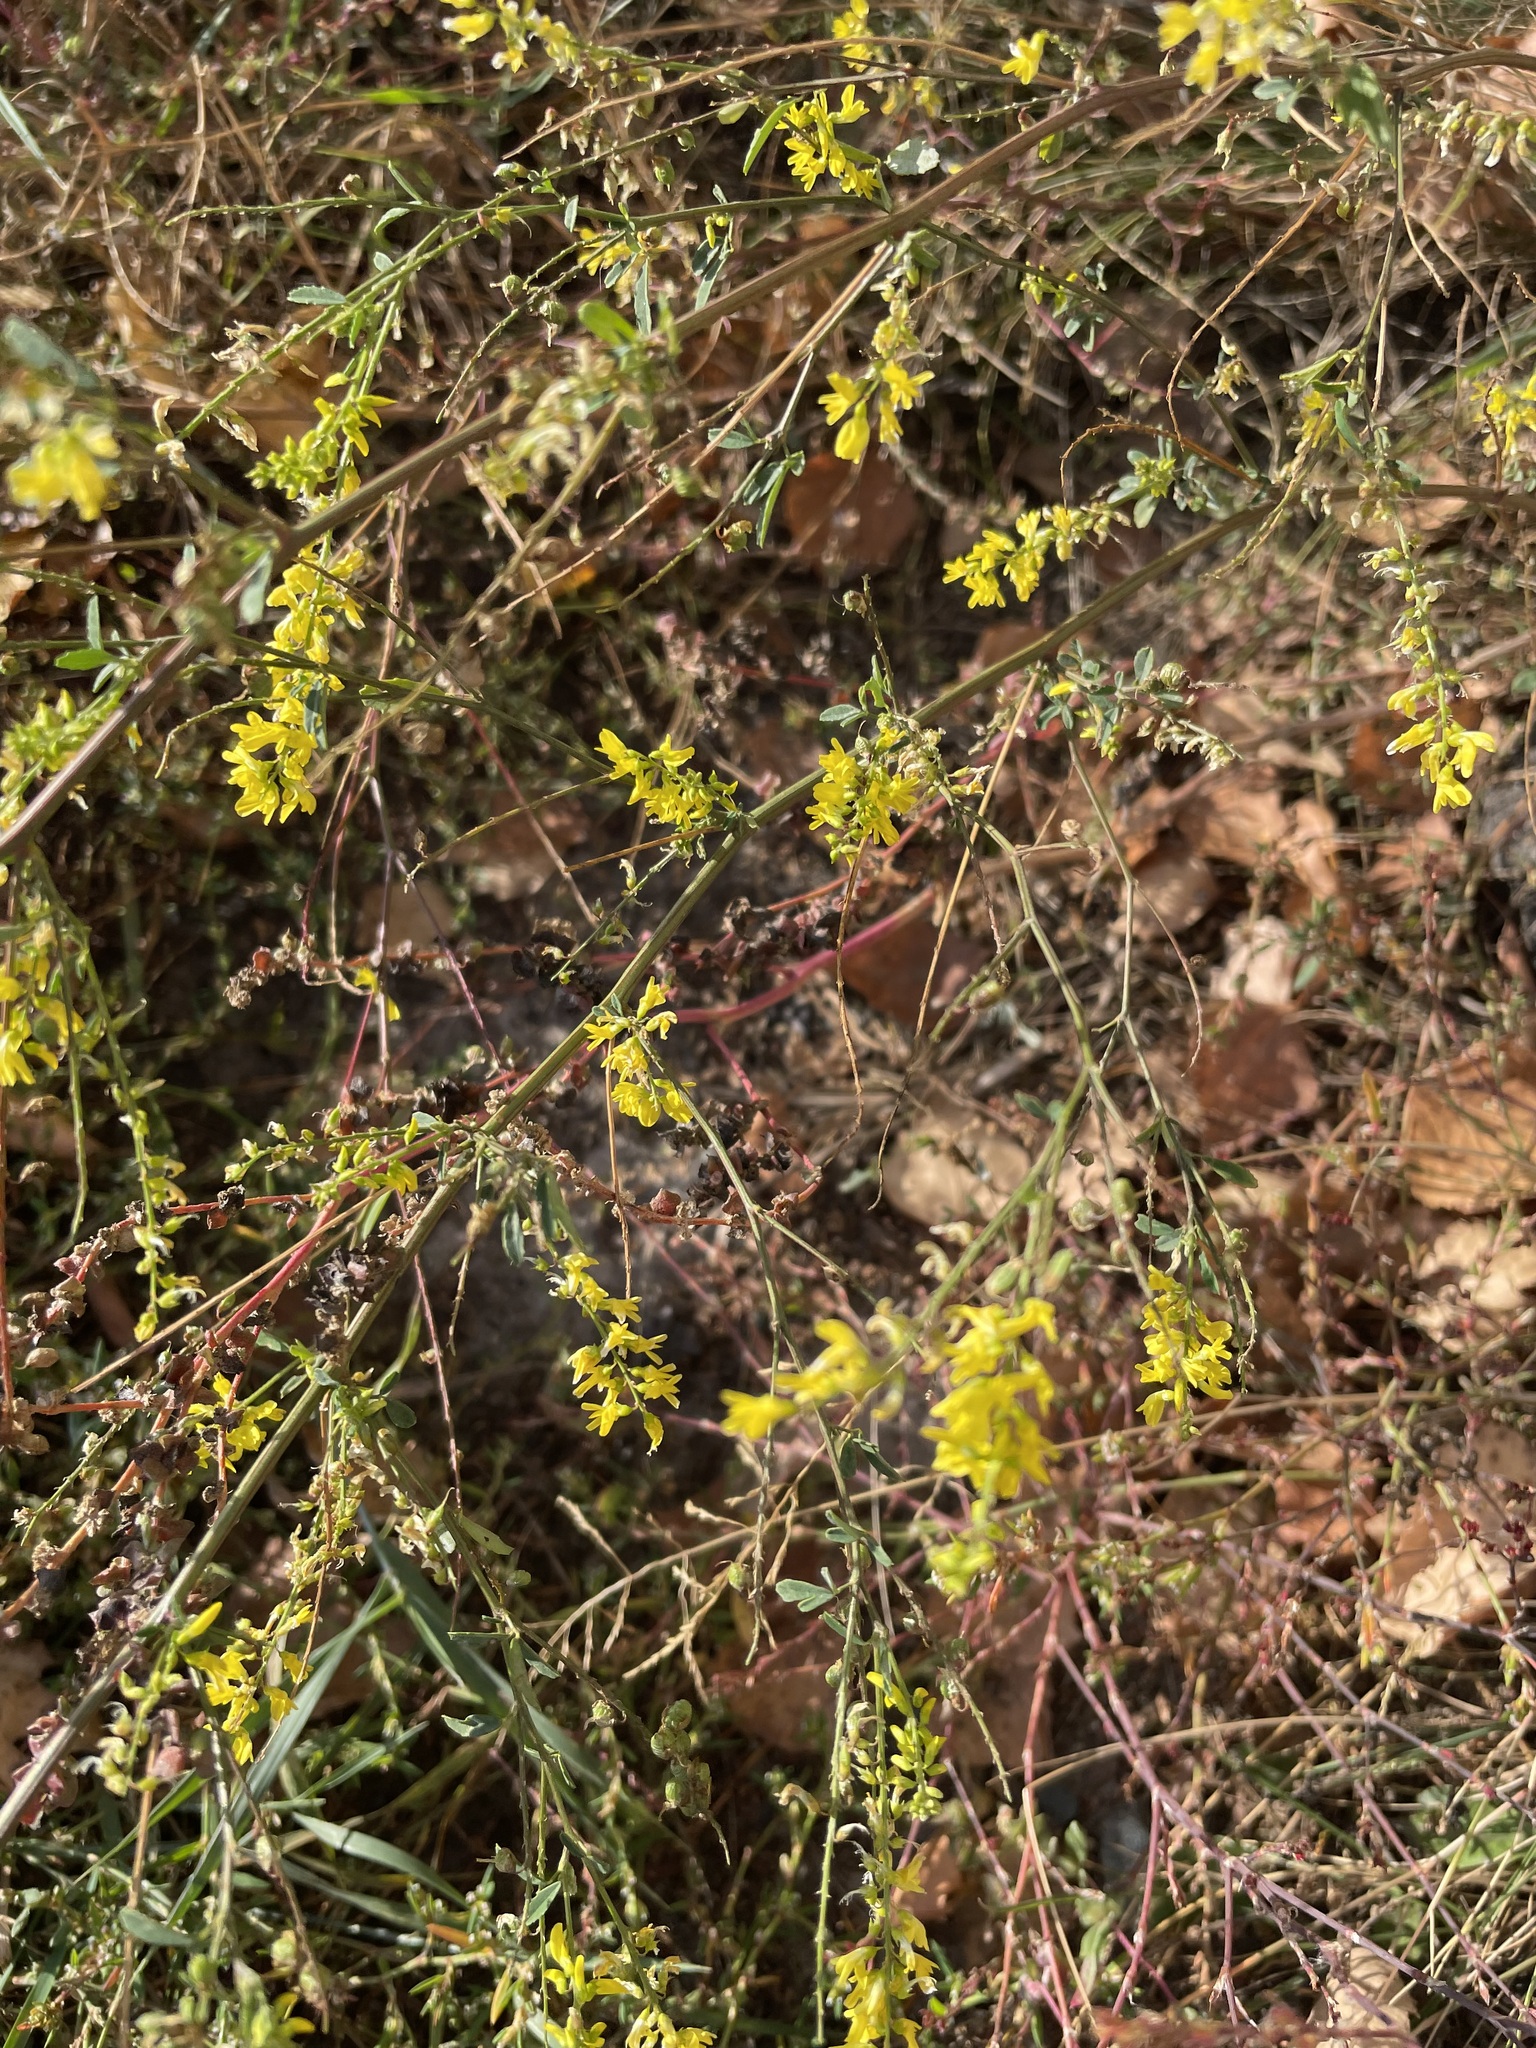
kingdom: Plantae
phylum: Tracheophyta
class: Magnoliopsida
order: Fabales
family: Fabaceae
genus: Melilotus
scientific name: Melilotus officinalis
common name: Sweetclover
